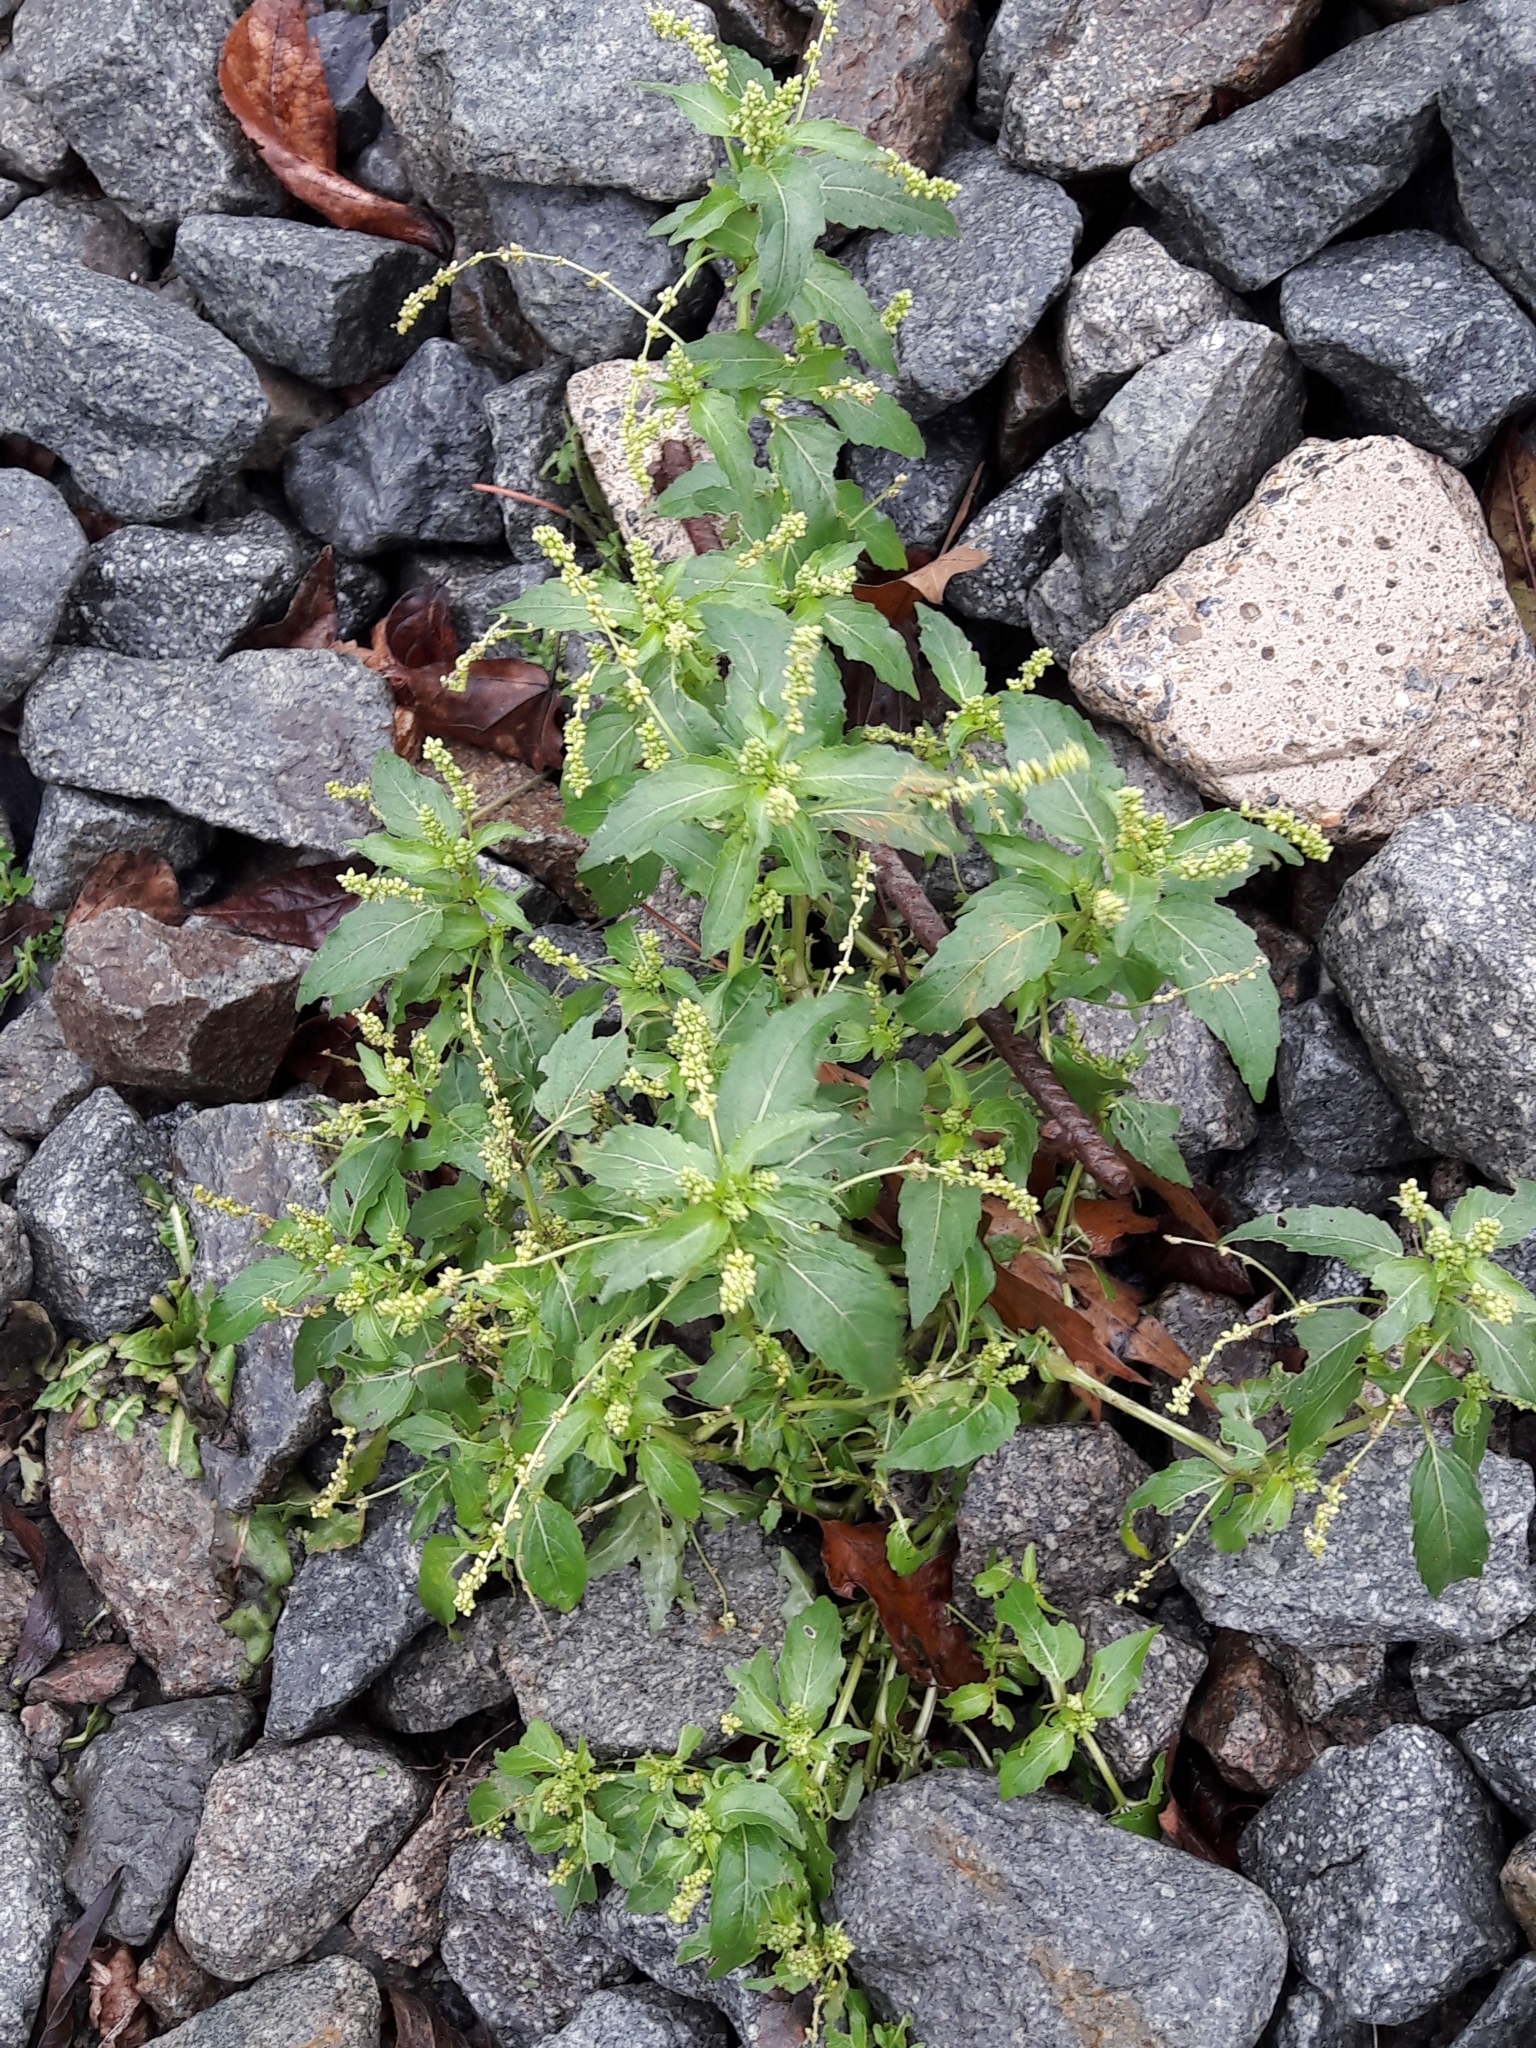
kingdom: Plantae
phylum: Tracheophyta
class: Magnoliopsida
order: Malpighiales
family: Euphorbiaceae
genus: Mercurialis
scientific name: Mercurialis annua
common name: Annual mercury
